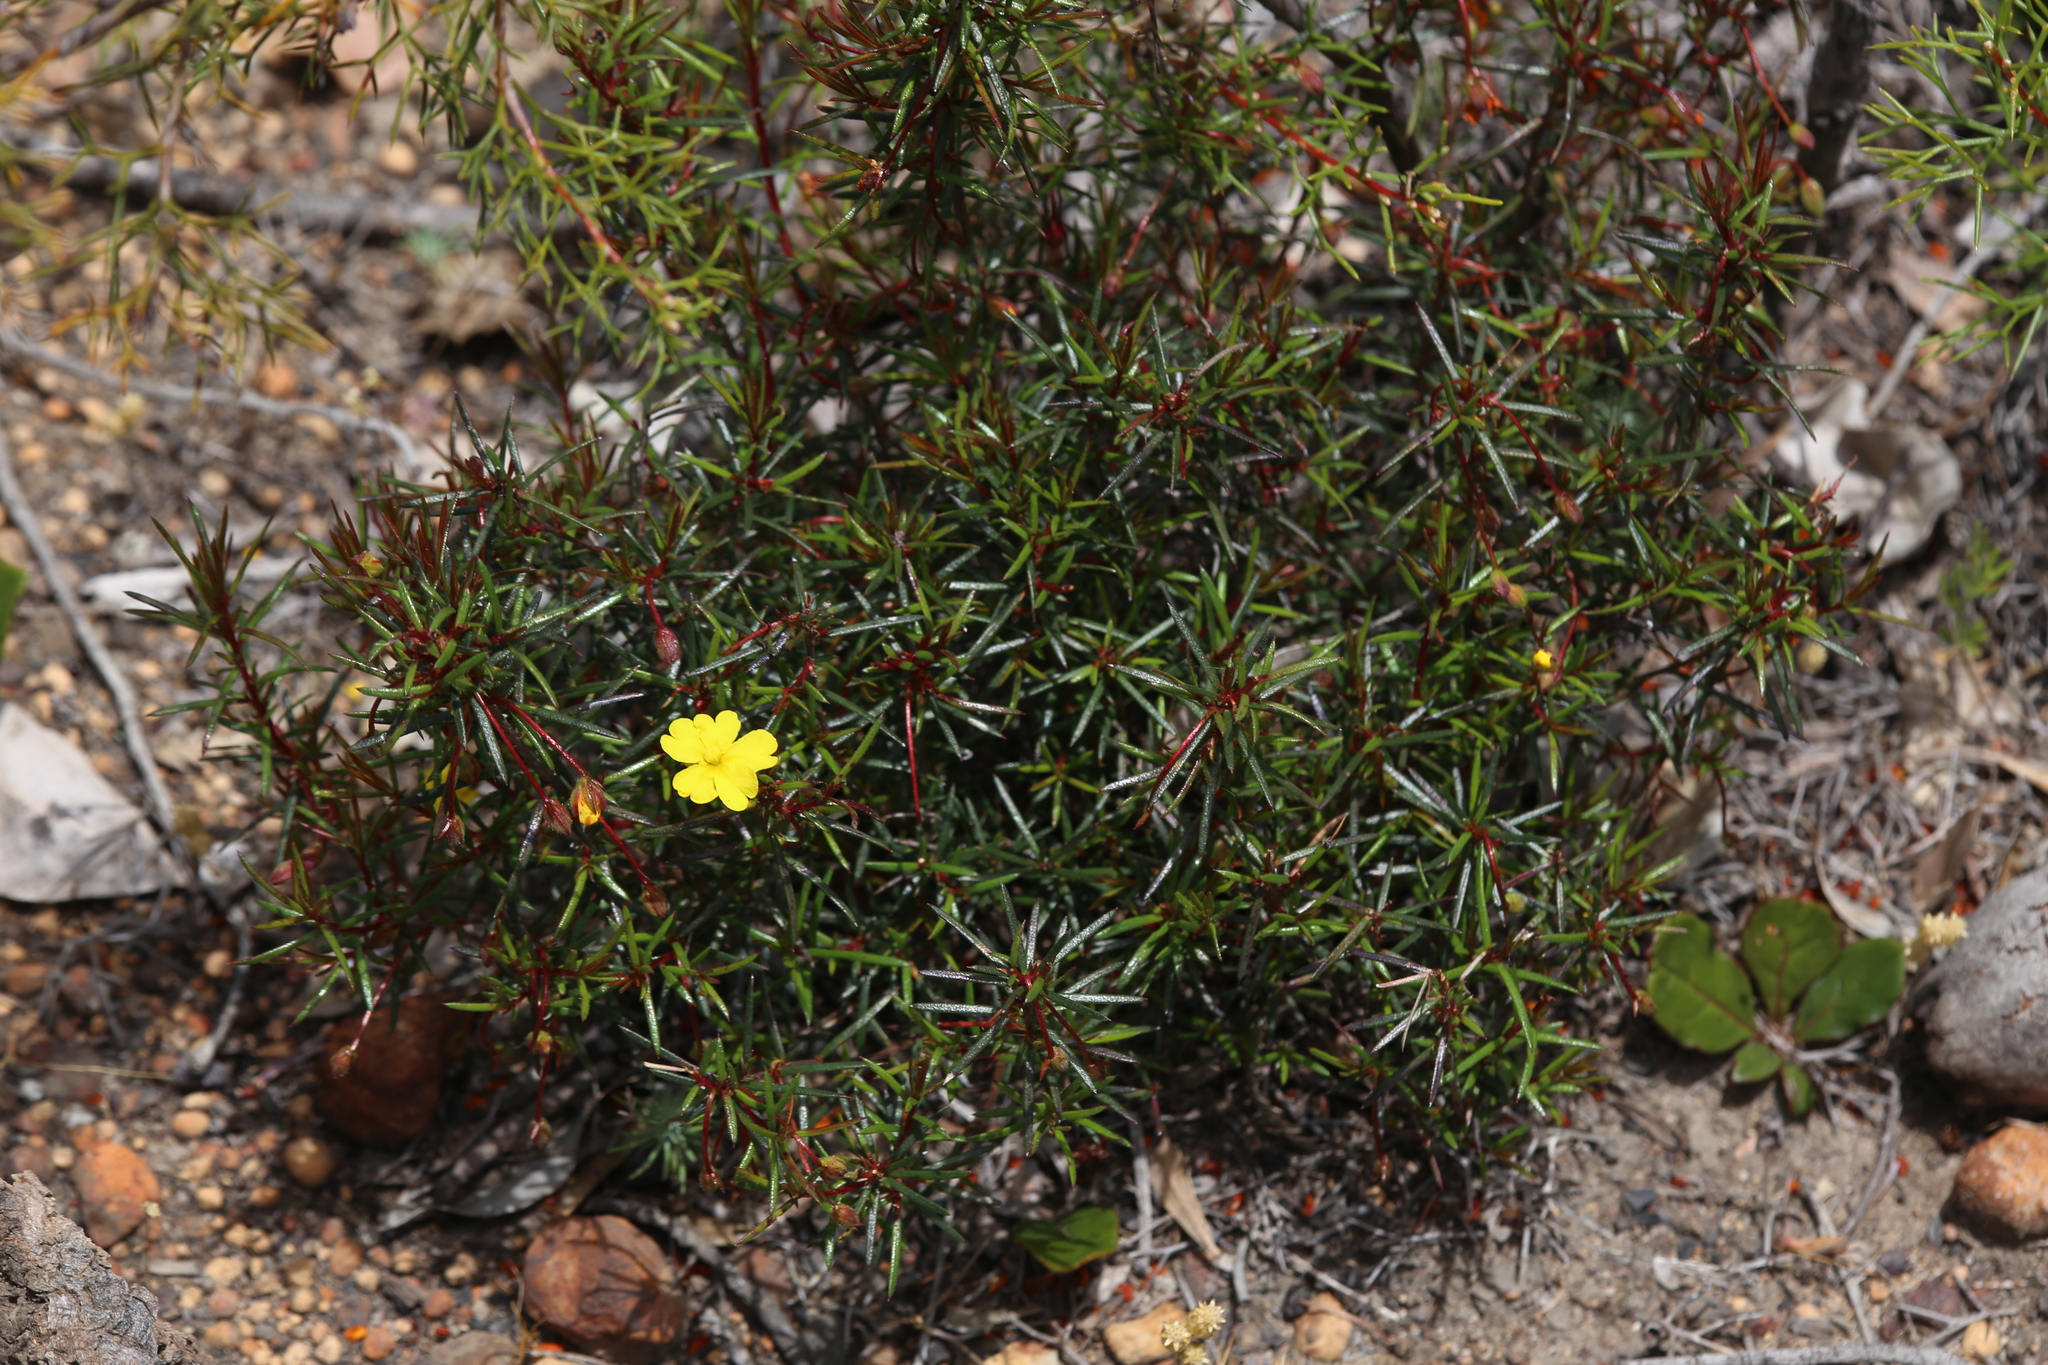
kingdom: Plantae
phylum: Tracheophyta
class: Magnoliopsida
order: Dilleniales
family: Dilleniaceae
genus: Hibbertia
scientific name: Hibbertia acerosa
